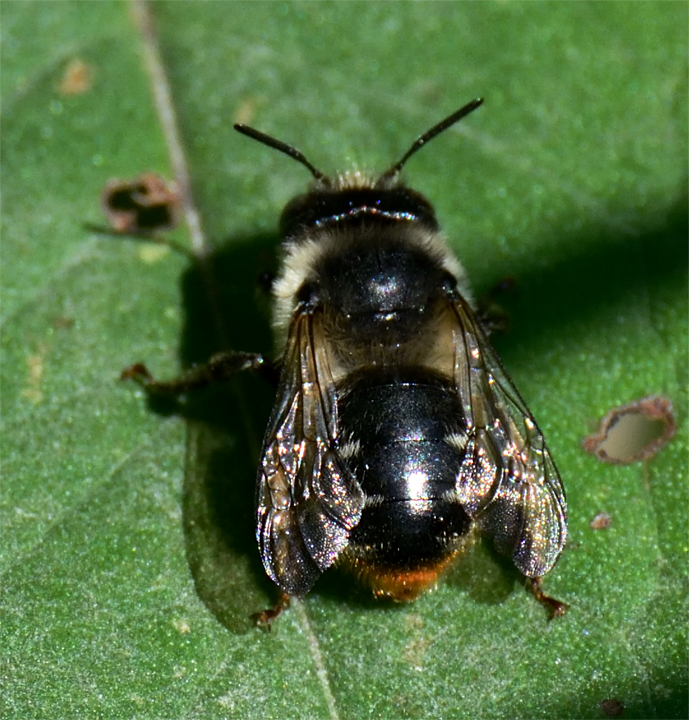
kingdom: Animalia
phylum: Arthropoda
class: Insecta
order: Hymenoptera
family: Apidae
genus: Anthophora
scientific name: Anthophora terminalis
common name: Orange-tipped wood-digger bee
